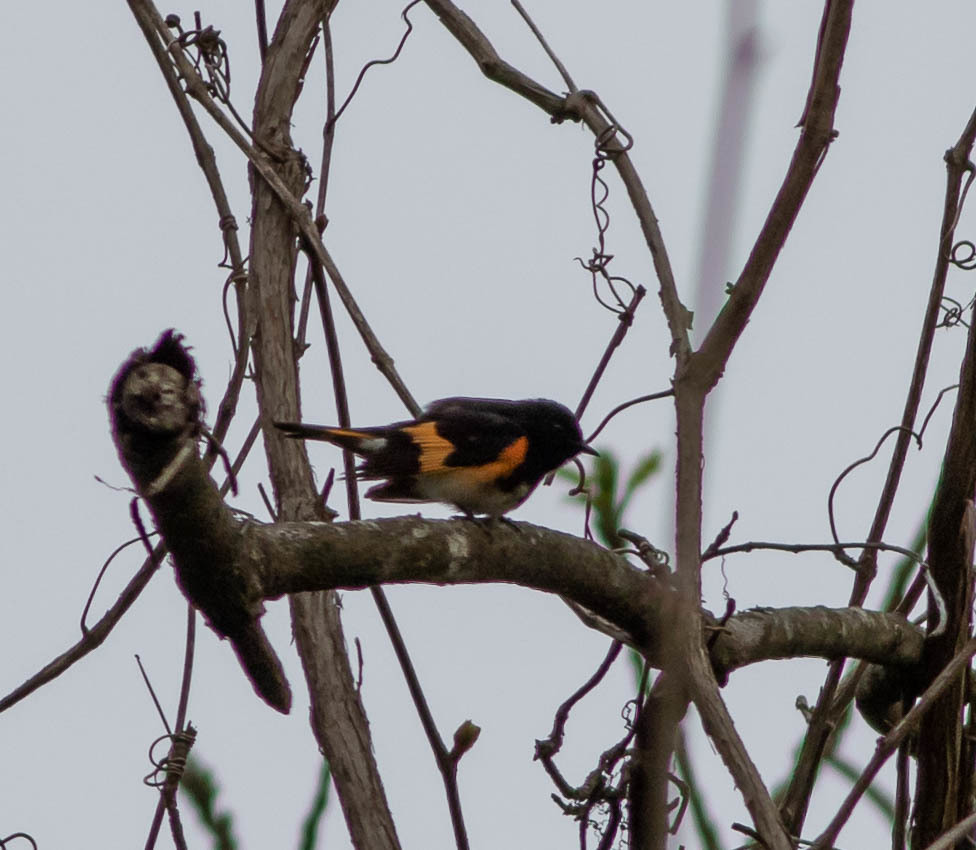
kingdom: Animalia
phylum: Chordata
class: Aves
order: Passeriformes
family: Parulidae
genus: Setophaga
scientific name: Setophaga ruticilla
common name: American redstart
